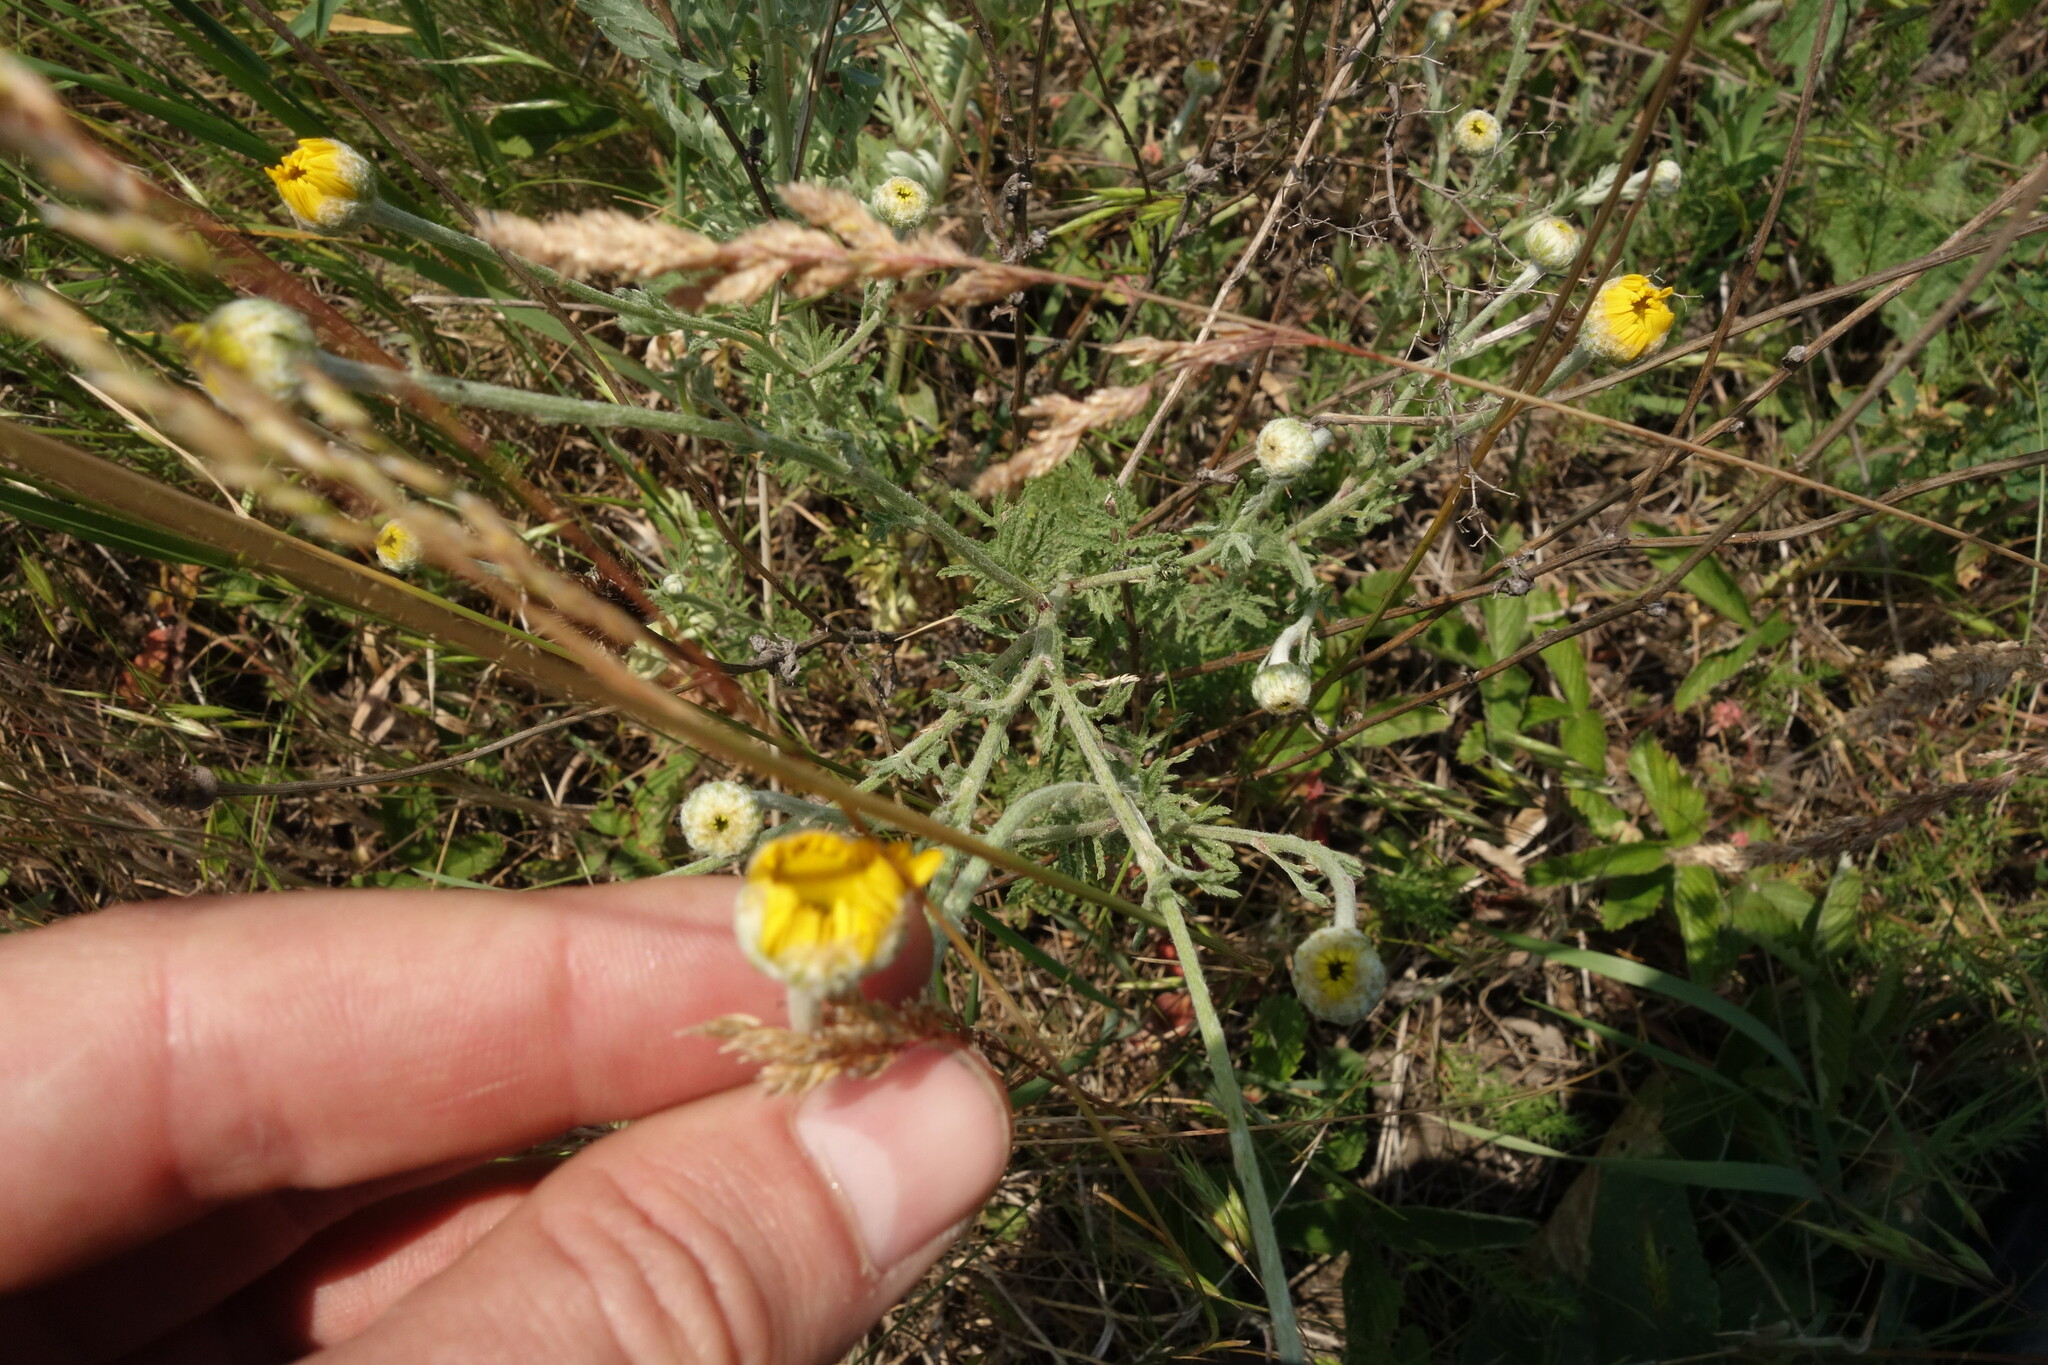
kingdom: Plantae
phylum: Tracheophyta
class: Magnoliopsida
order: Asterales
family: Asteraceae
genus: Cota
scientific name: Cota tinctoria
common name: Golden chamomile
